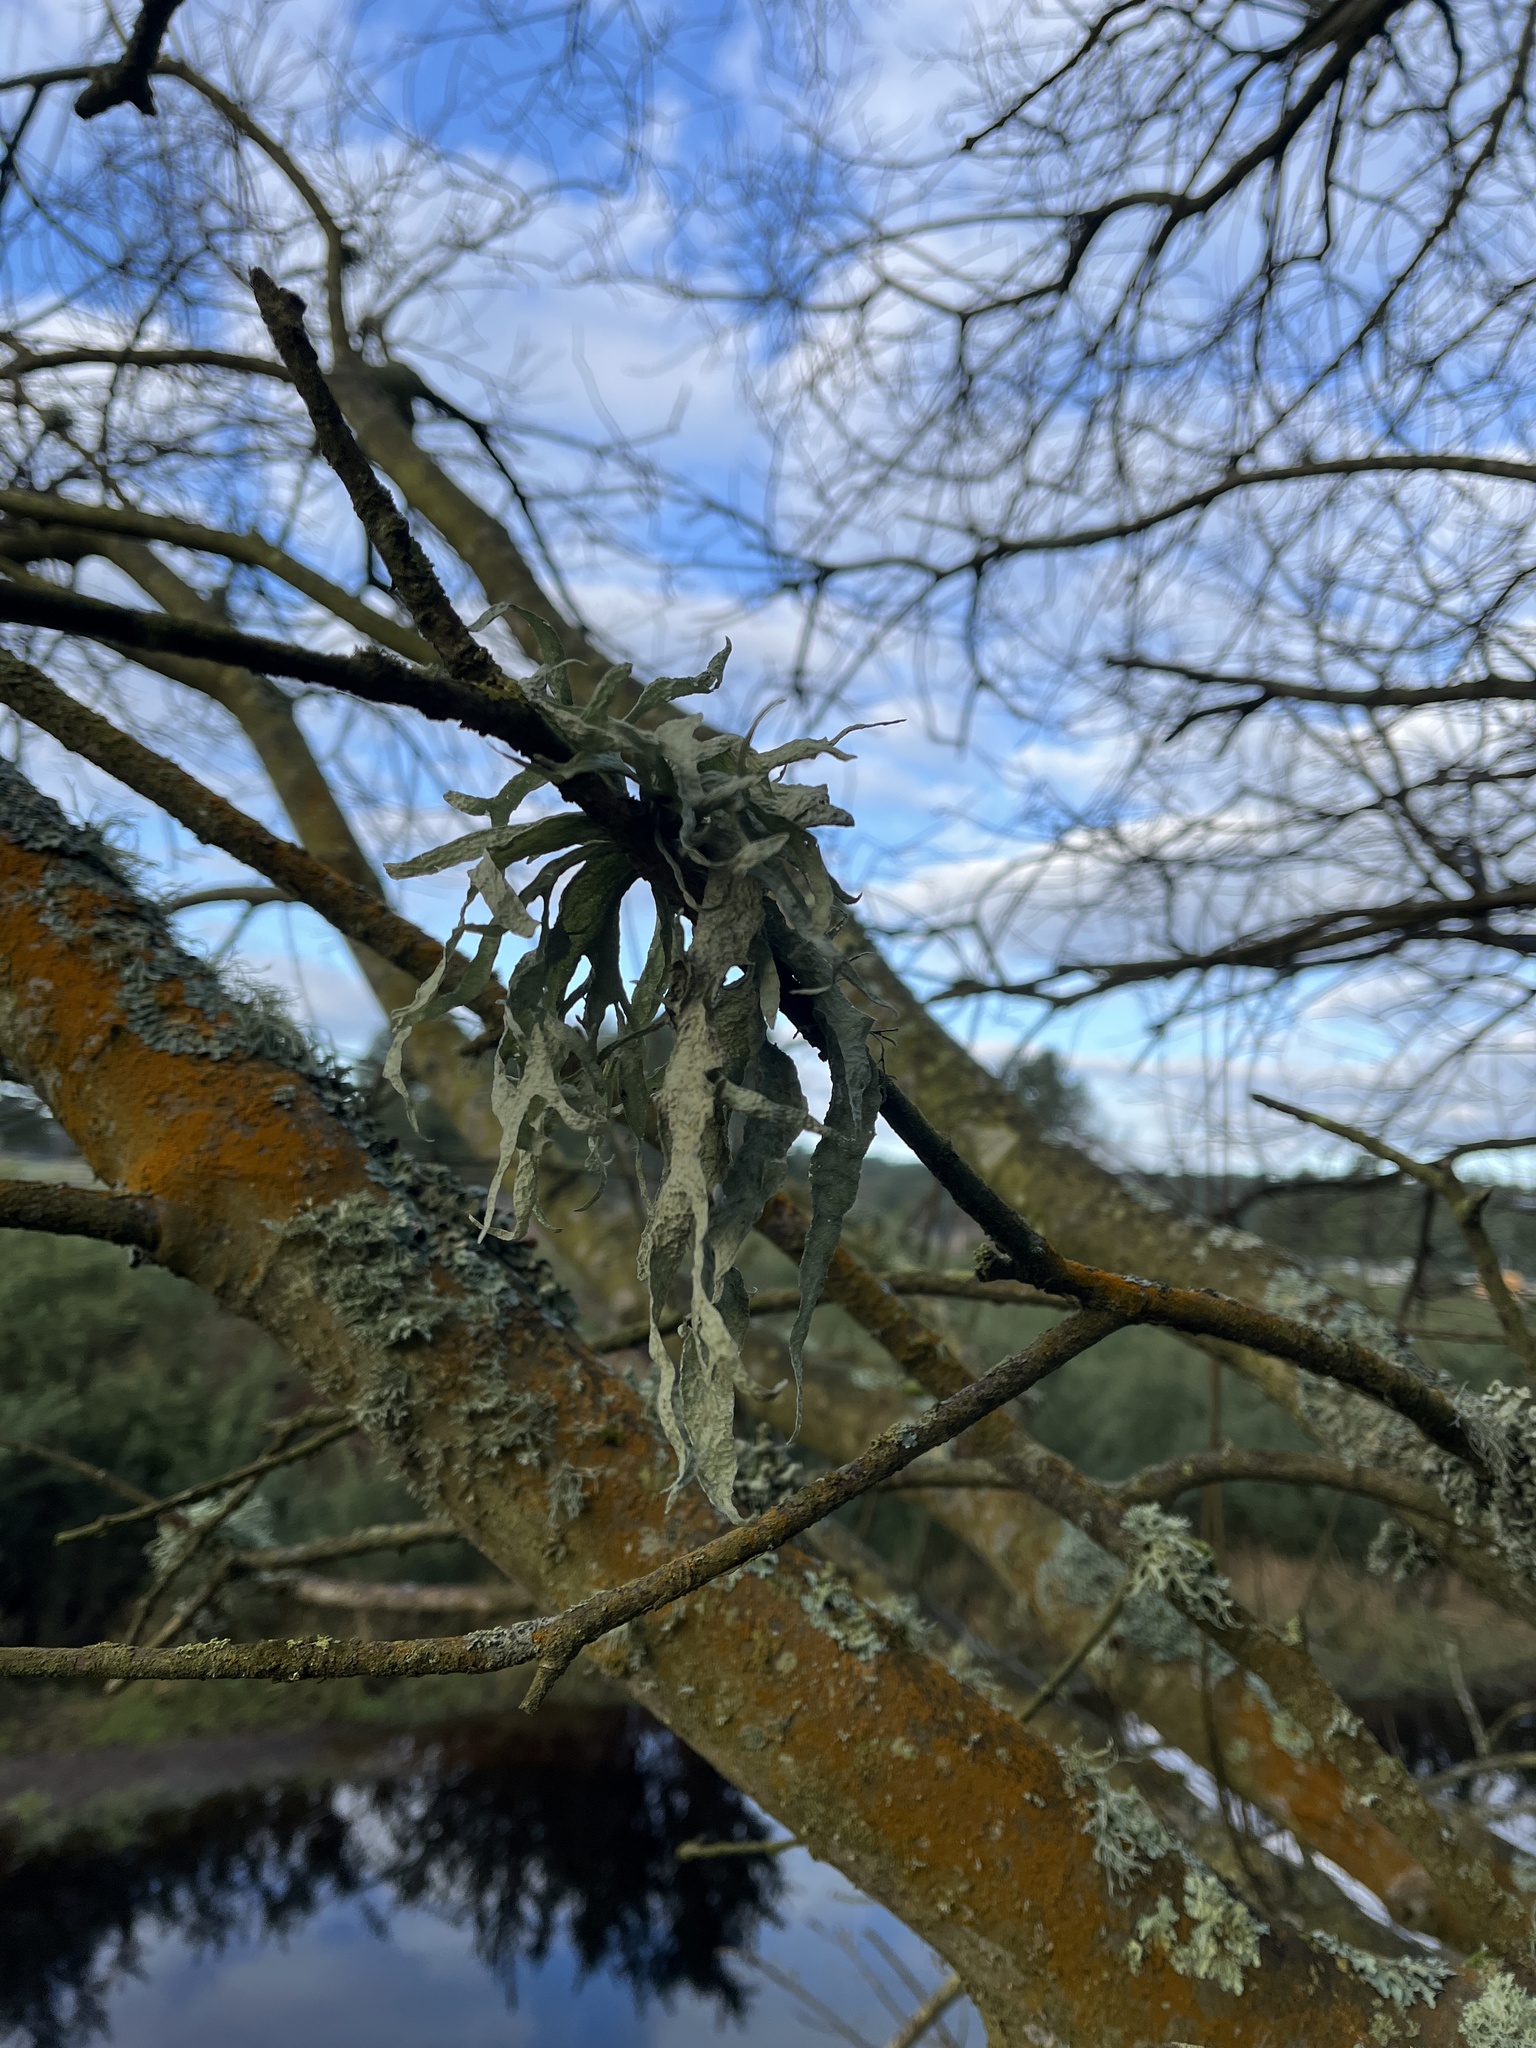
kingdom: Fungi
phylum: Ascomycota
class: Lecanoromycetes
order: Lecanorales
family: Ramalinaceae
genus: Ramalina
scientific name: Ramalina fraxinea
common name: Cartilage lichen
